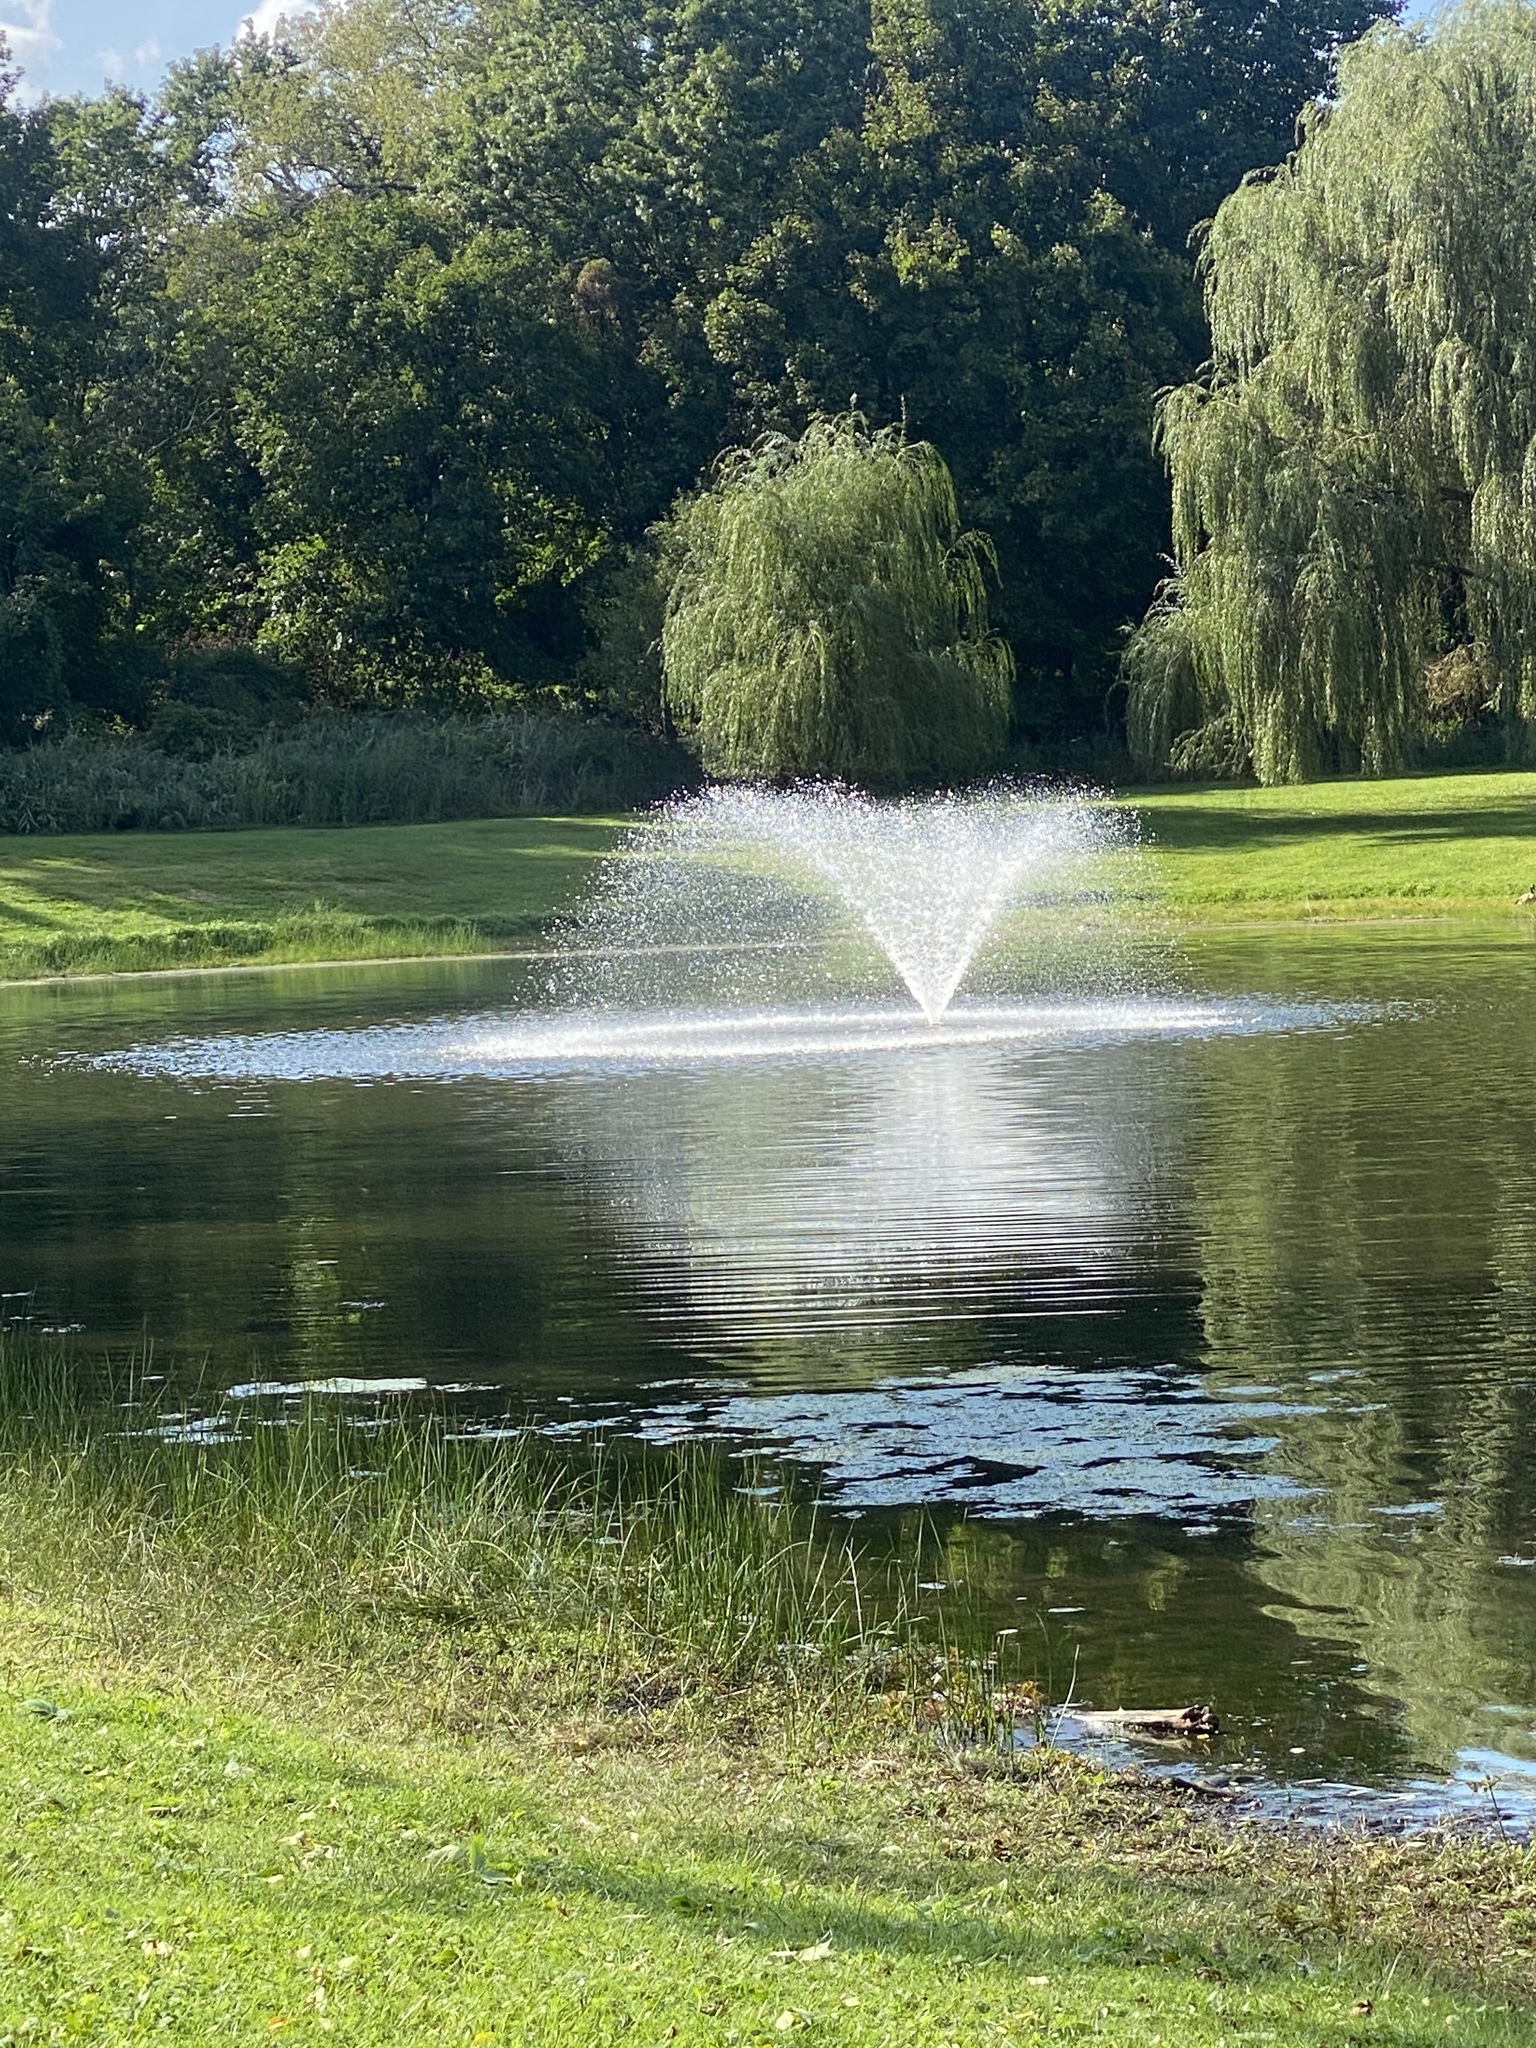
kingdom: Animalia
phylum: Chordata
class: Aves
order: Anseriformes
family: Anatidae
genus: Branta
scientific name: Branta canadensis
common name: Canada goose
